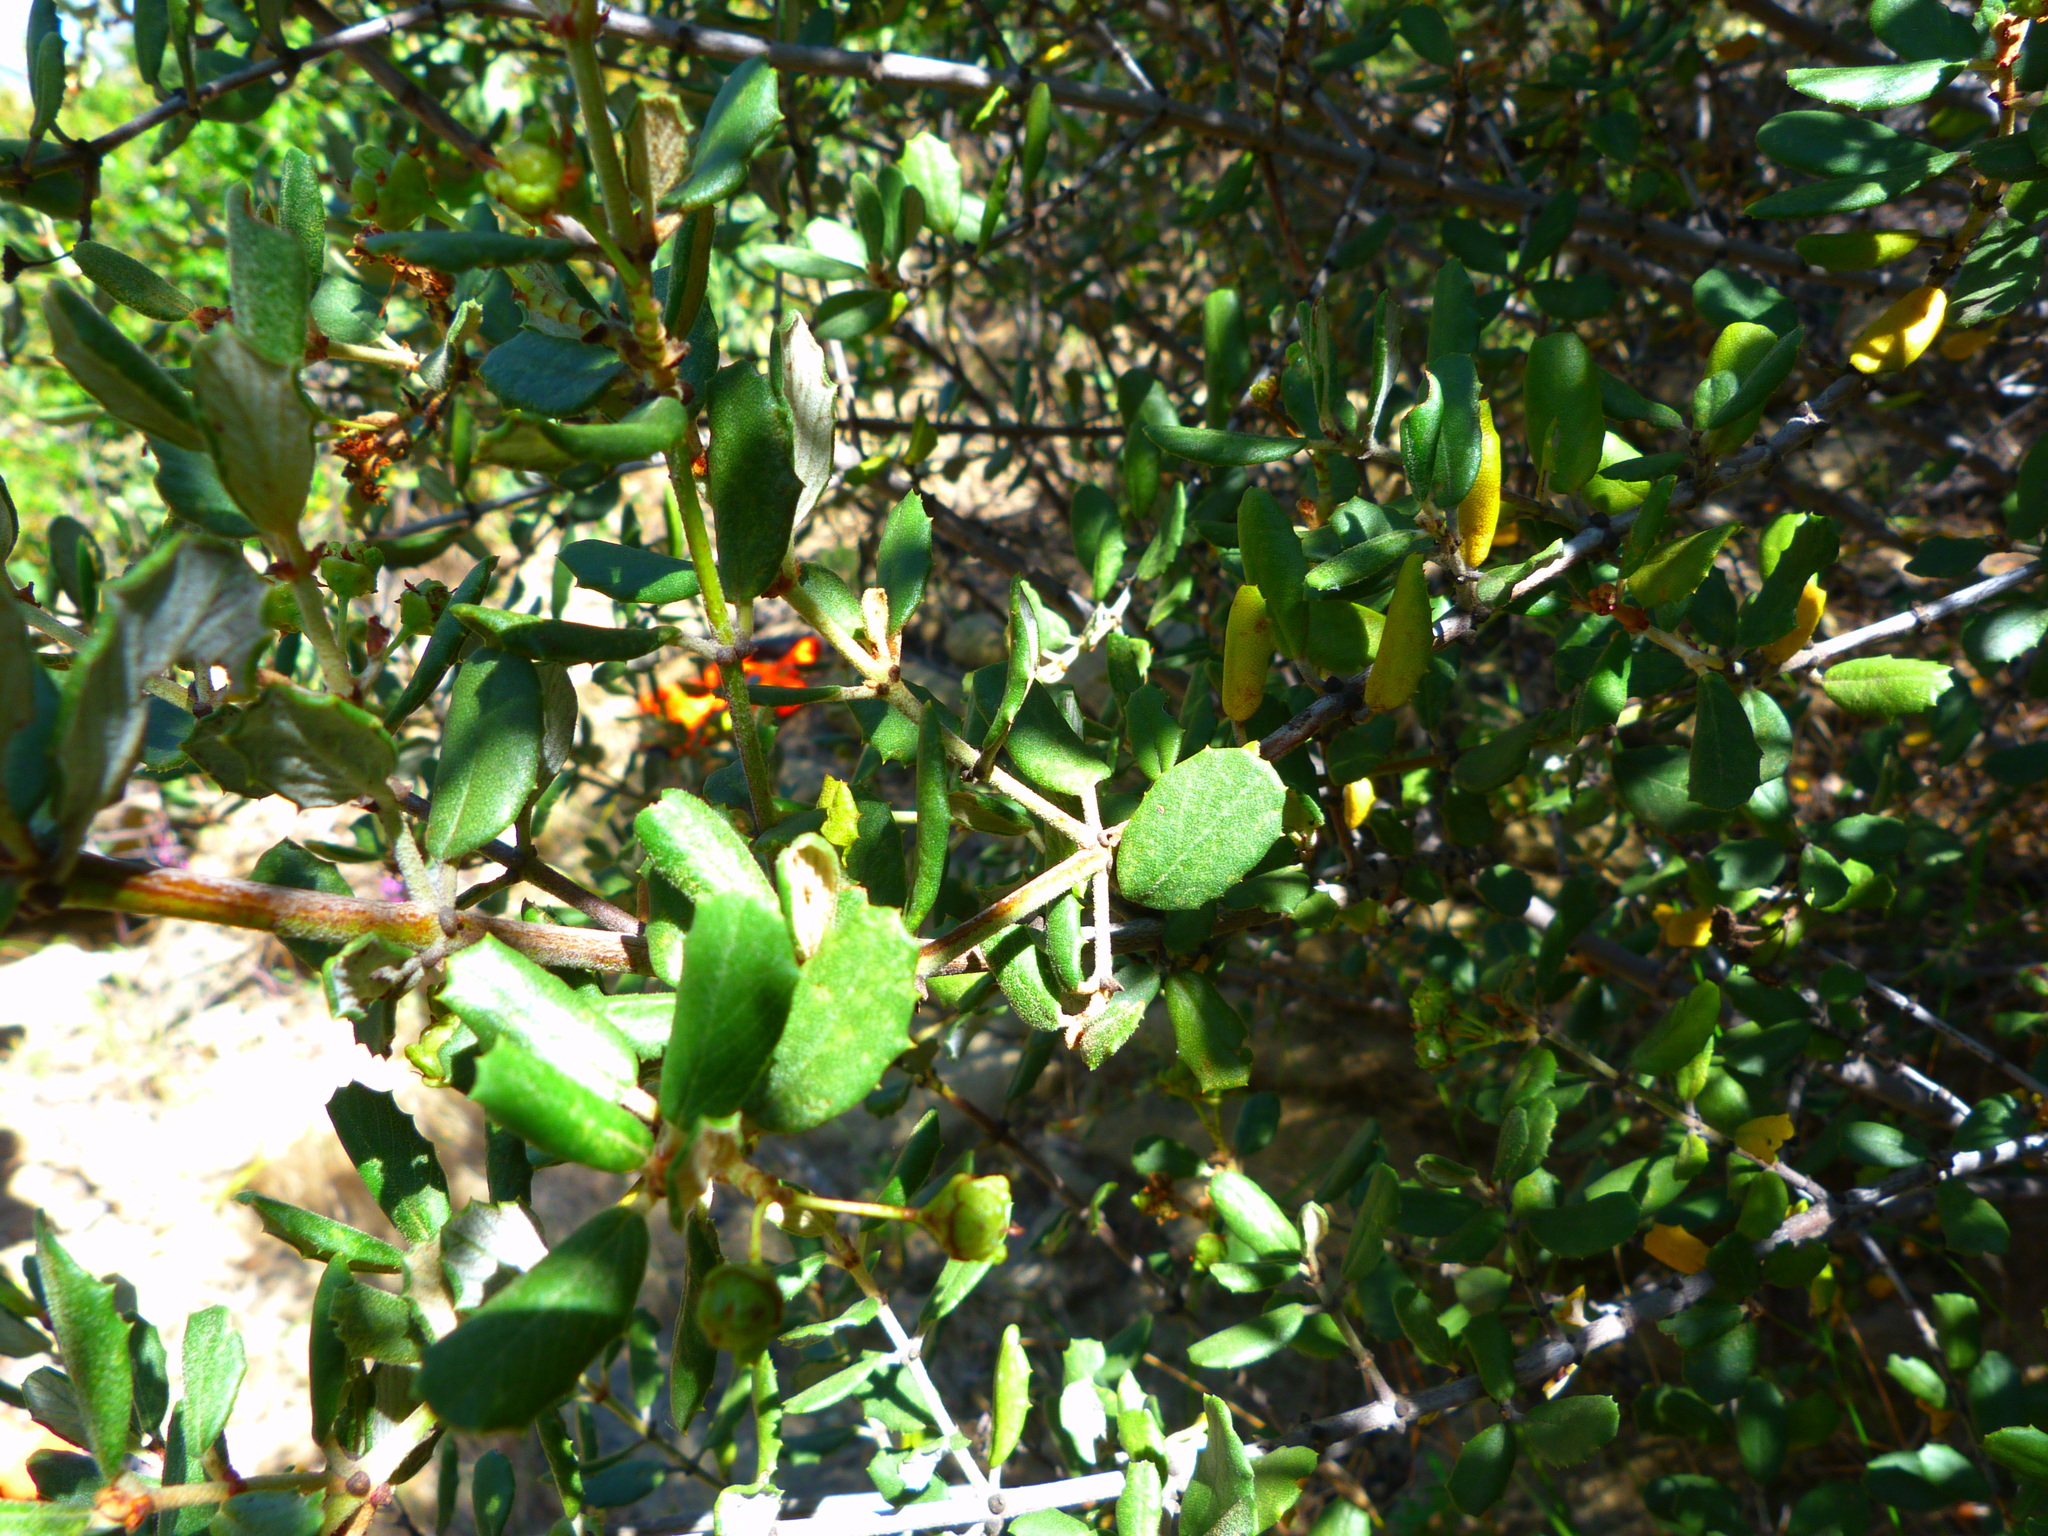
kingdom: Plantae
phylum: Tracheophyta
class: Magnoliopsida
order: Rosales
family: Rhamnaceae
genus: Ceanothus
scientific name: Ceanothus crassifolius
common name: Hoaryleaf ceanothus
